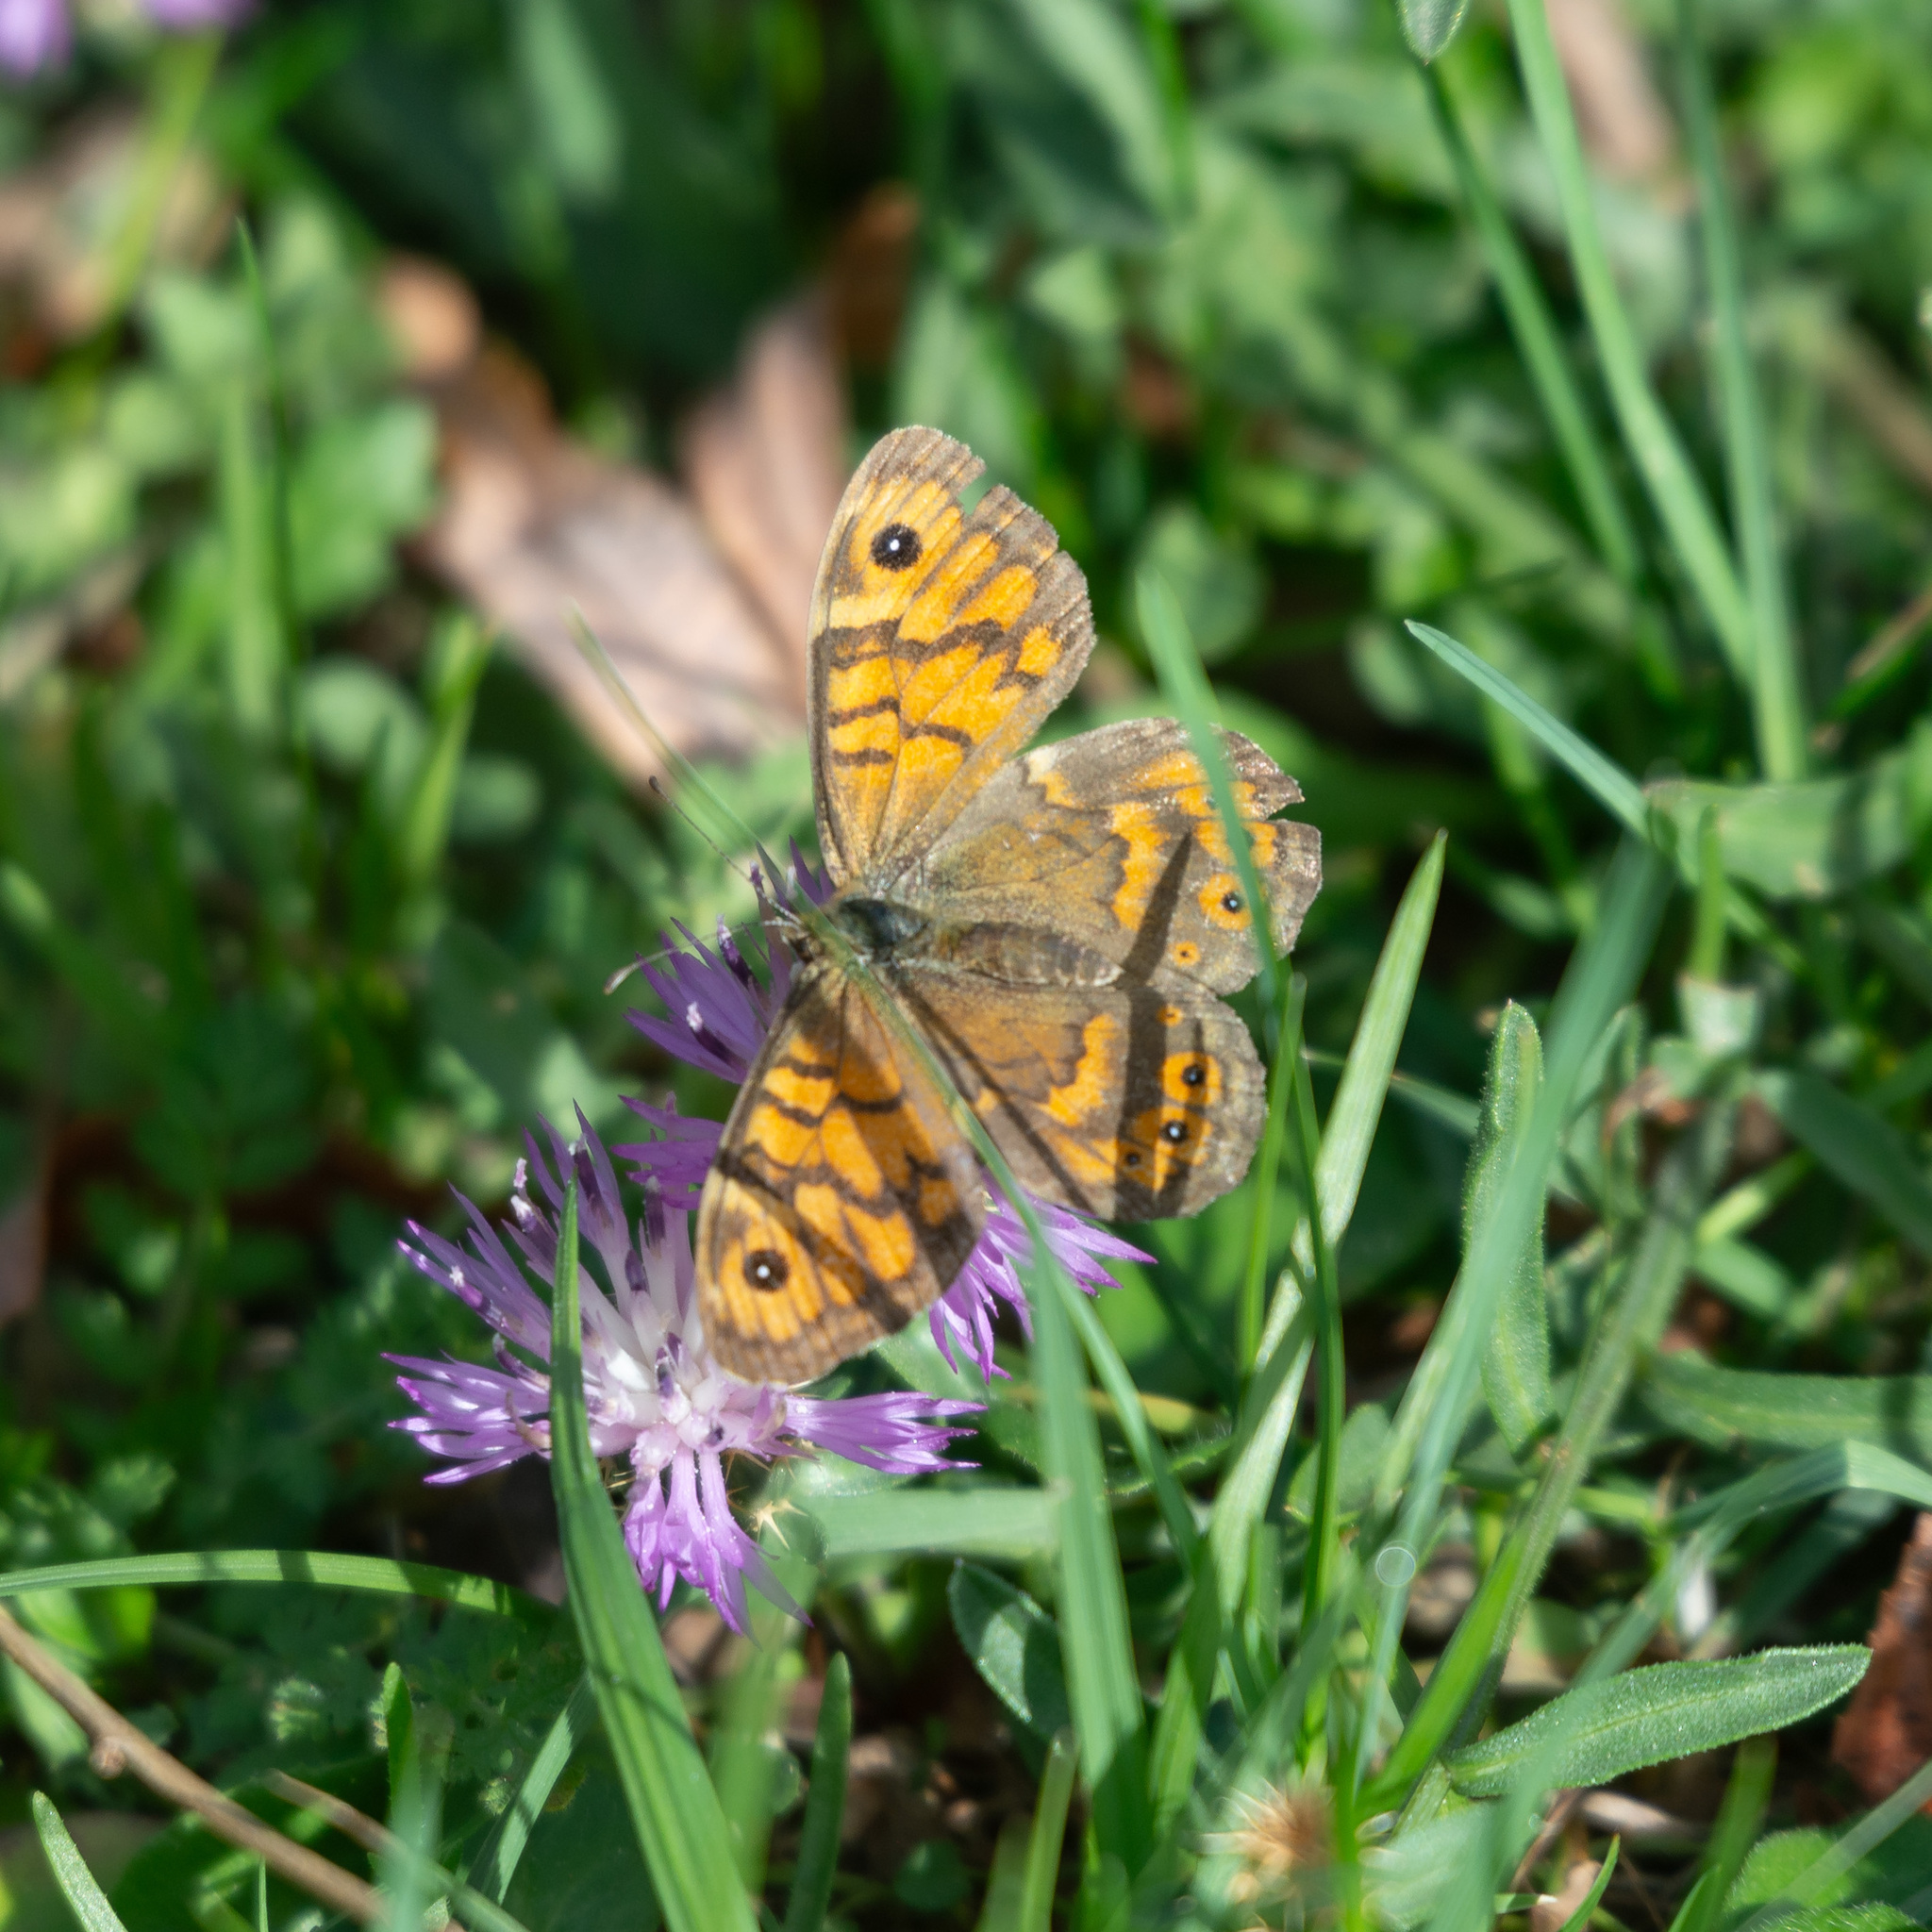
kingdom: Animalia
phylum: Arthropoda
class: Insecta
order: Lepidoptera
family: Nymphalidae
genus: Pararge
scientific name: Pararge Lasiommata megera
